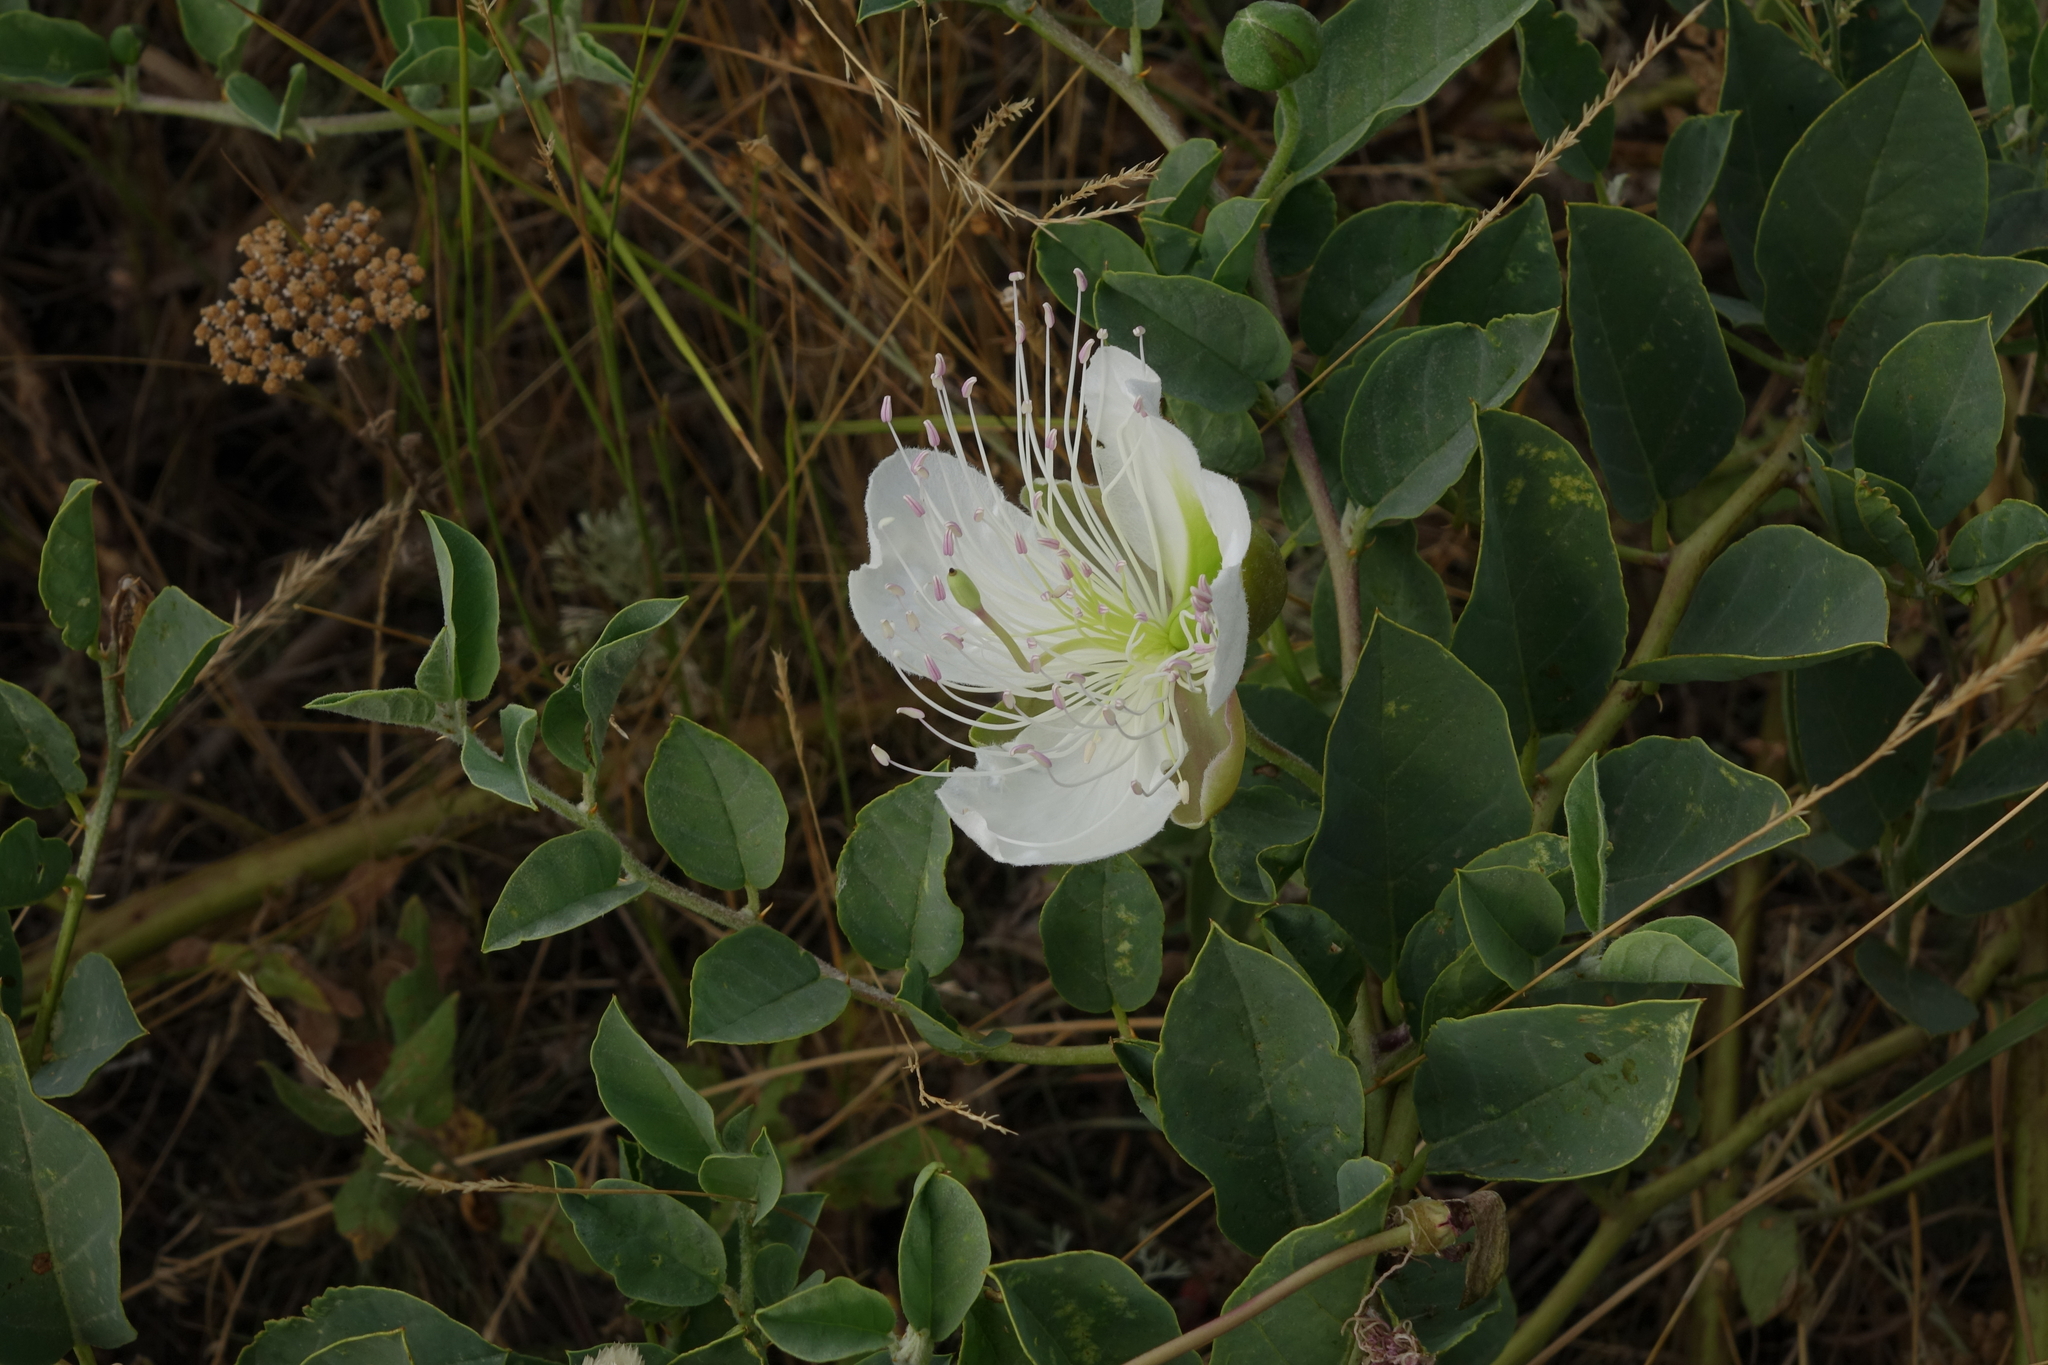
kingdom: Plantae
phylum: Tracheophyta
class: Magnoliopsida
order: Brassicales
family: Capparaceae
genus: Capparis
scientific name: Capparis spinosa
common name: Caper
